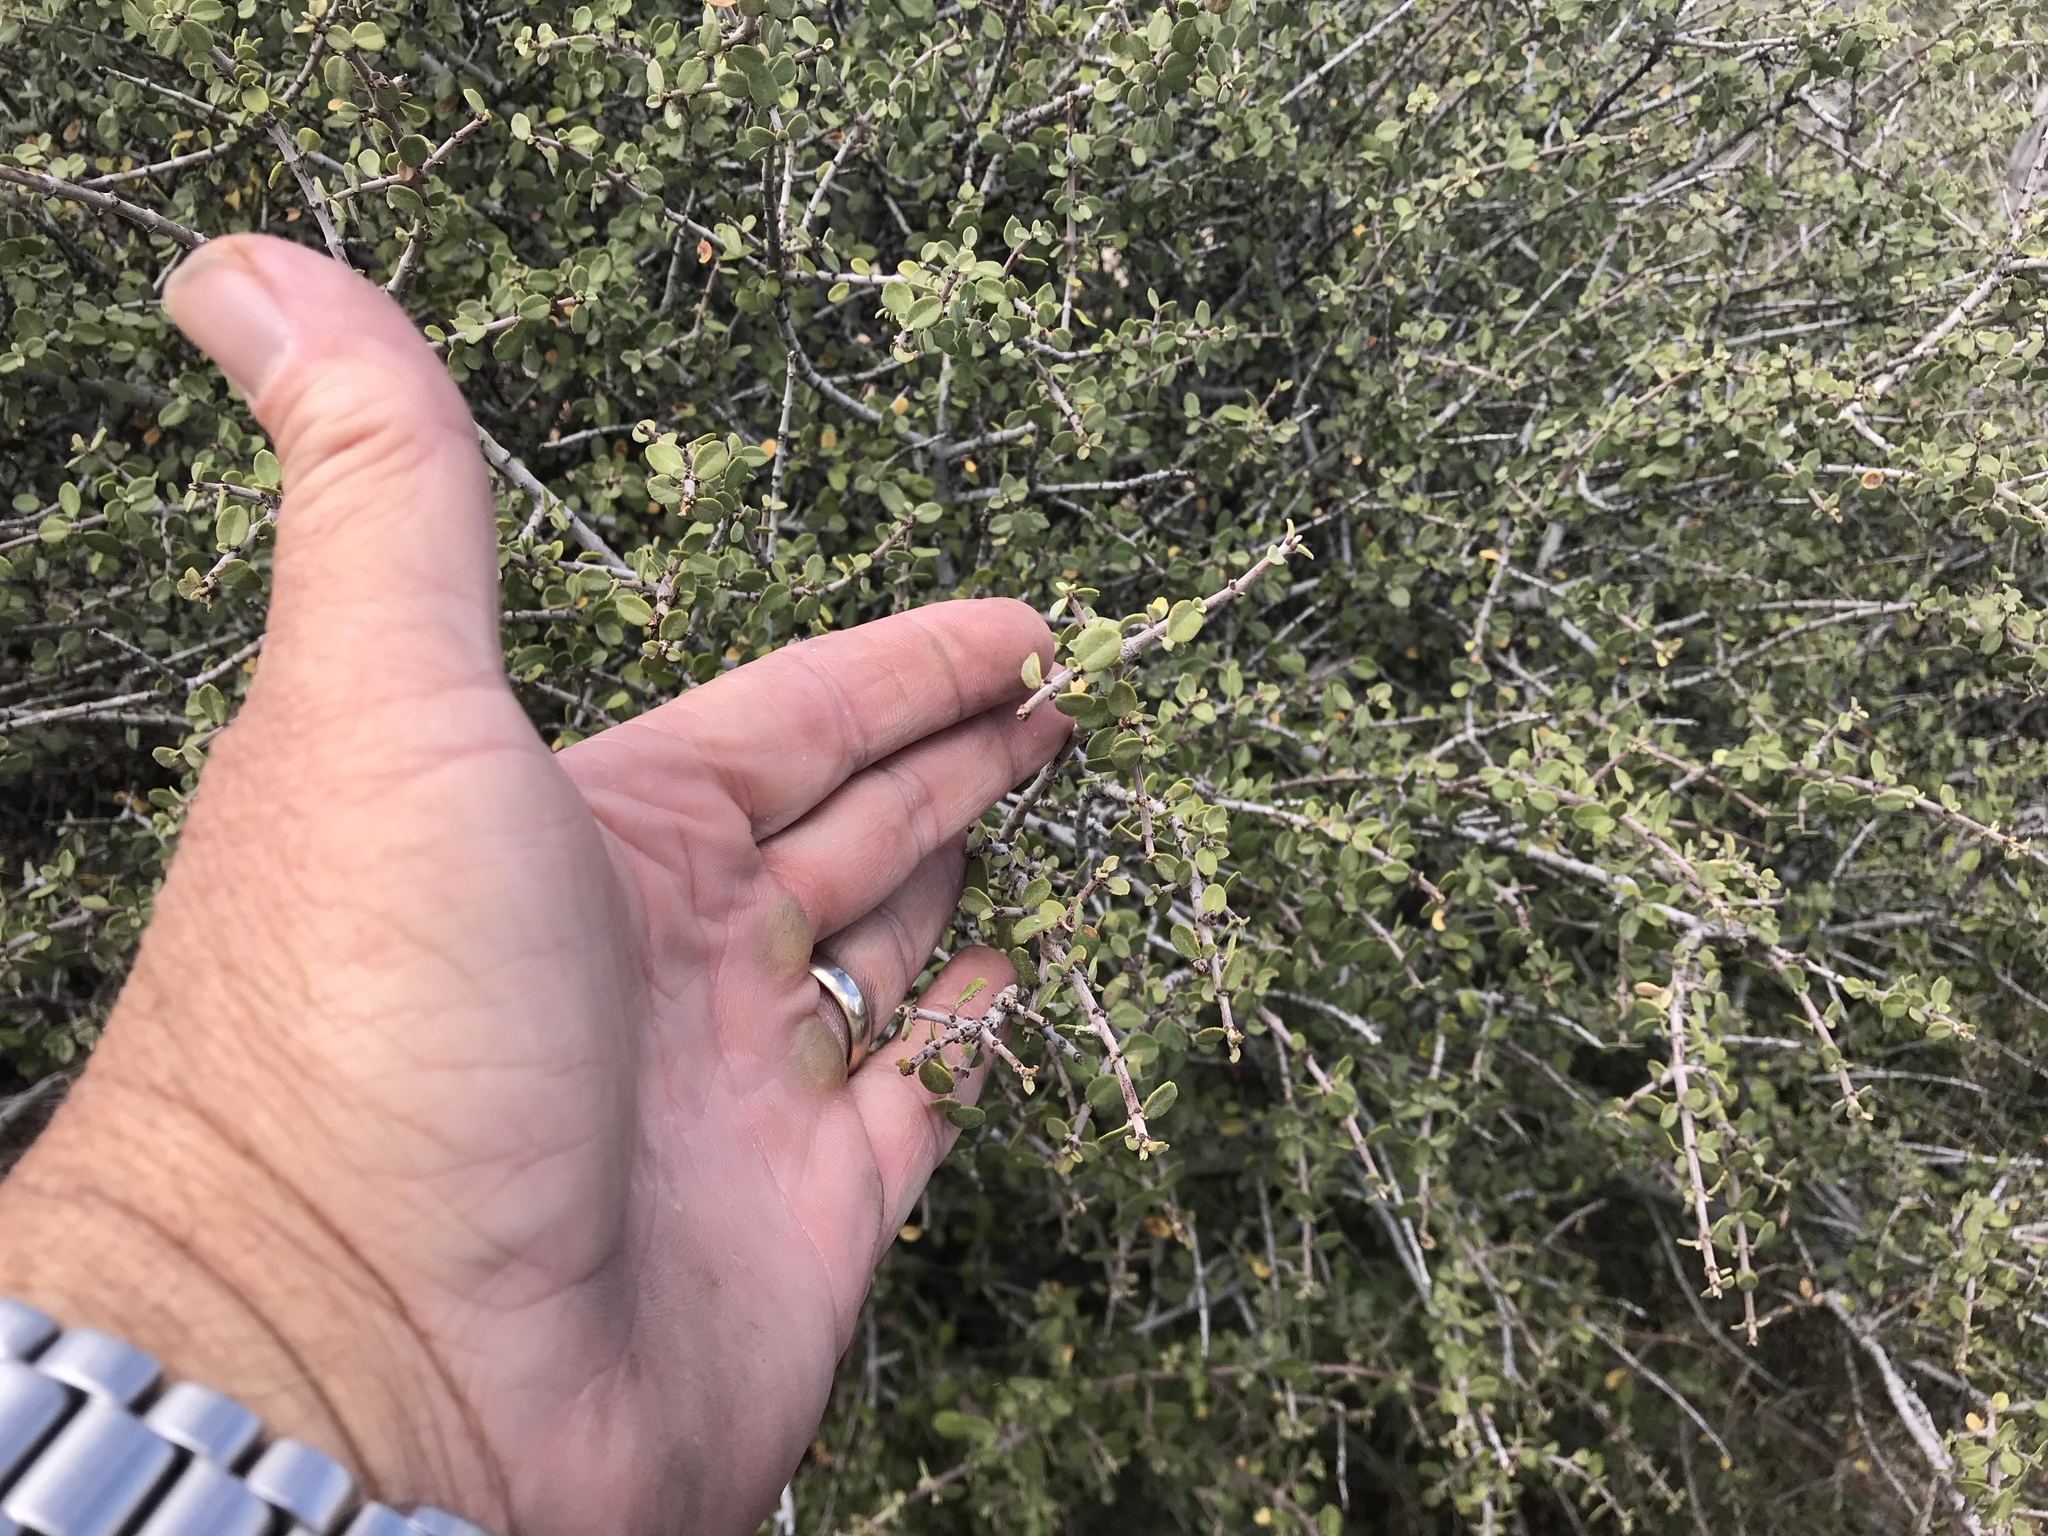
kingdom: Plantae
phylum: Tracheophyta
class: Magnoliopsida
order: Rosales
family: Rhamnaceae
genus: Ceanothus
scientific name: Ceanothus pauciflorus
